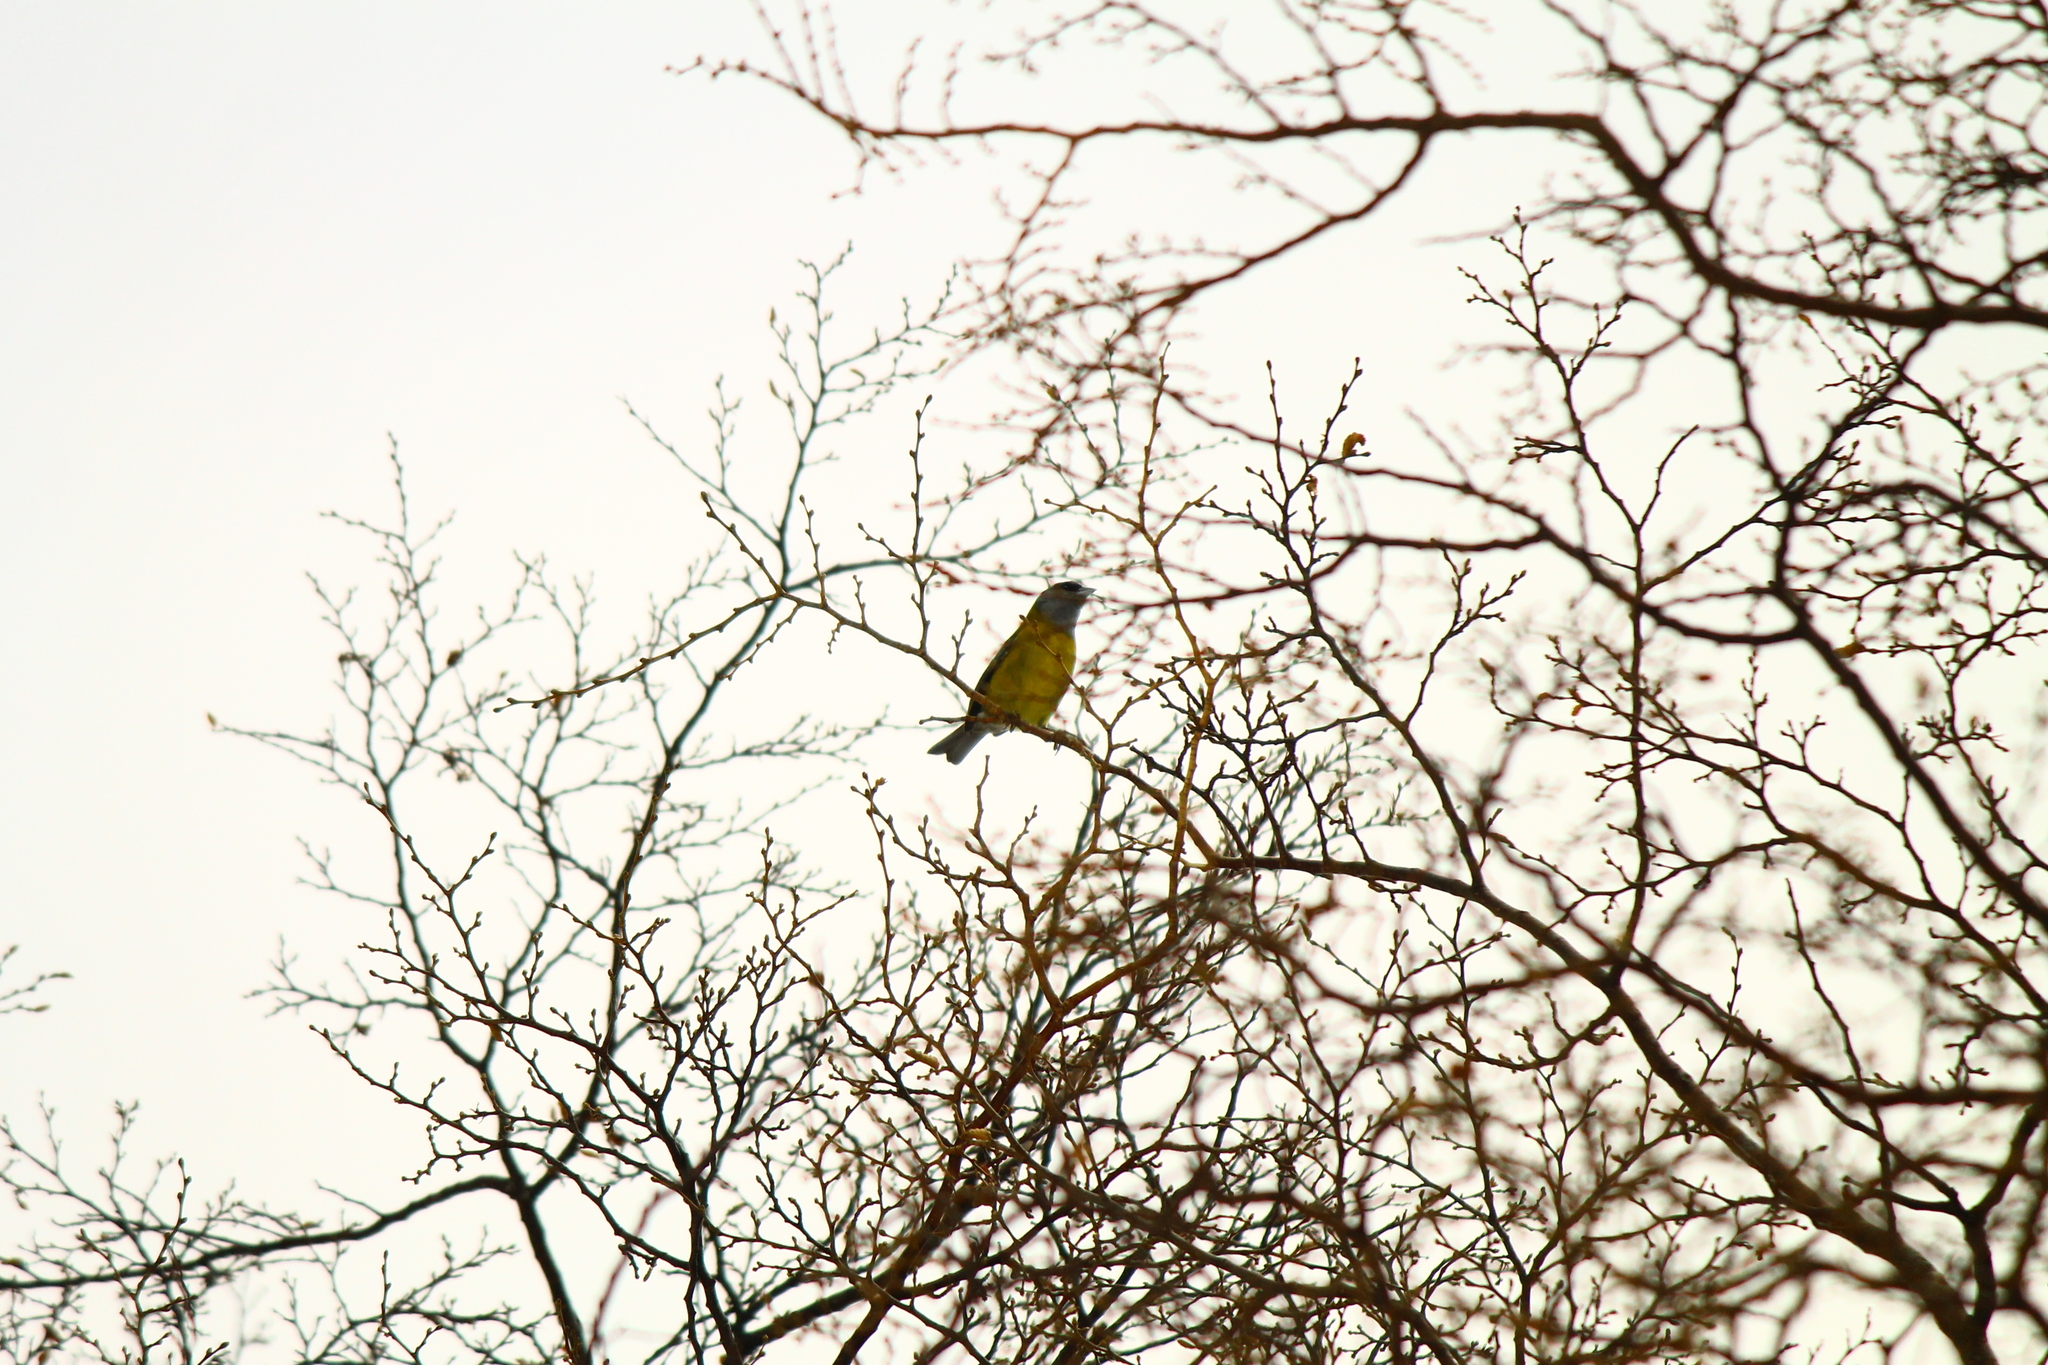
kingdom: Animalia
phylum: Chordata
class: Aves
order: Passeriformes
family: Thraupidae
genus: Phrygilus
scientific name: Phrygilus patagonicus
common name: Patagonian sierra finch
